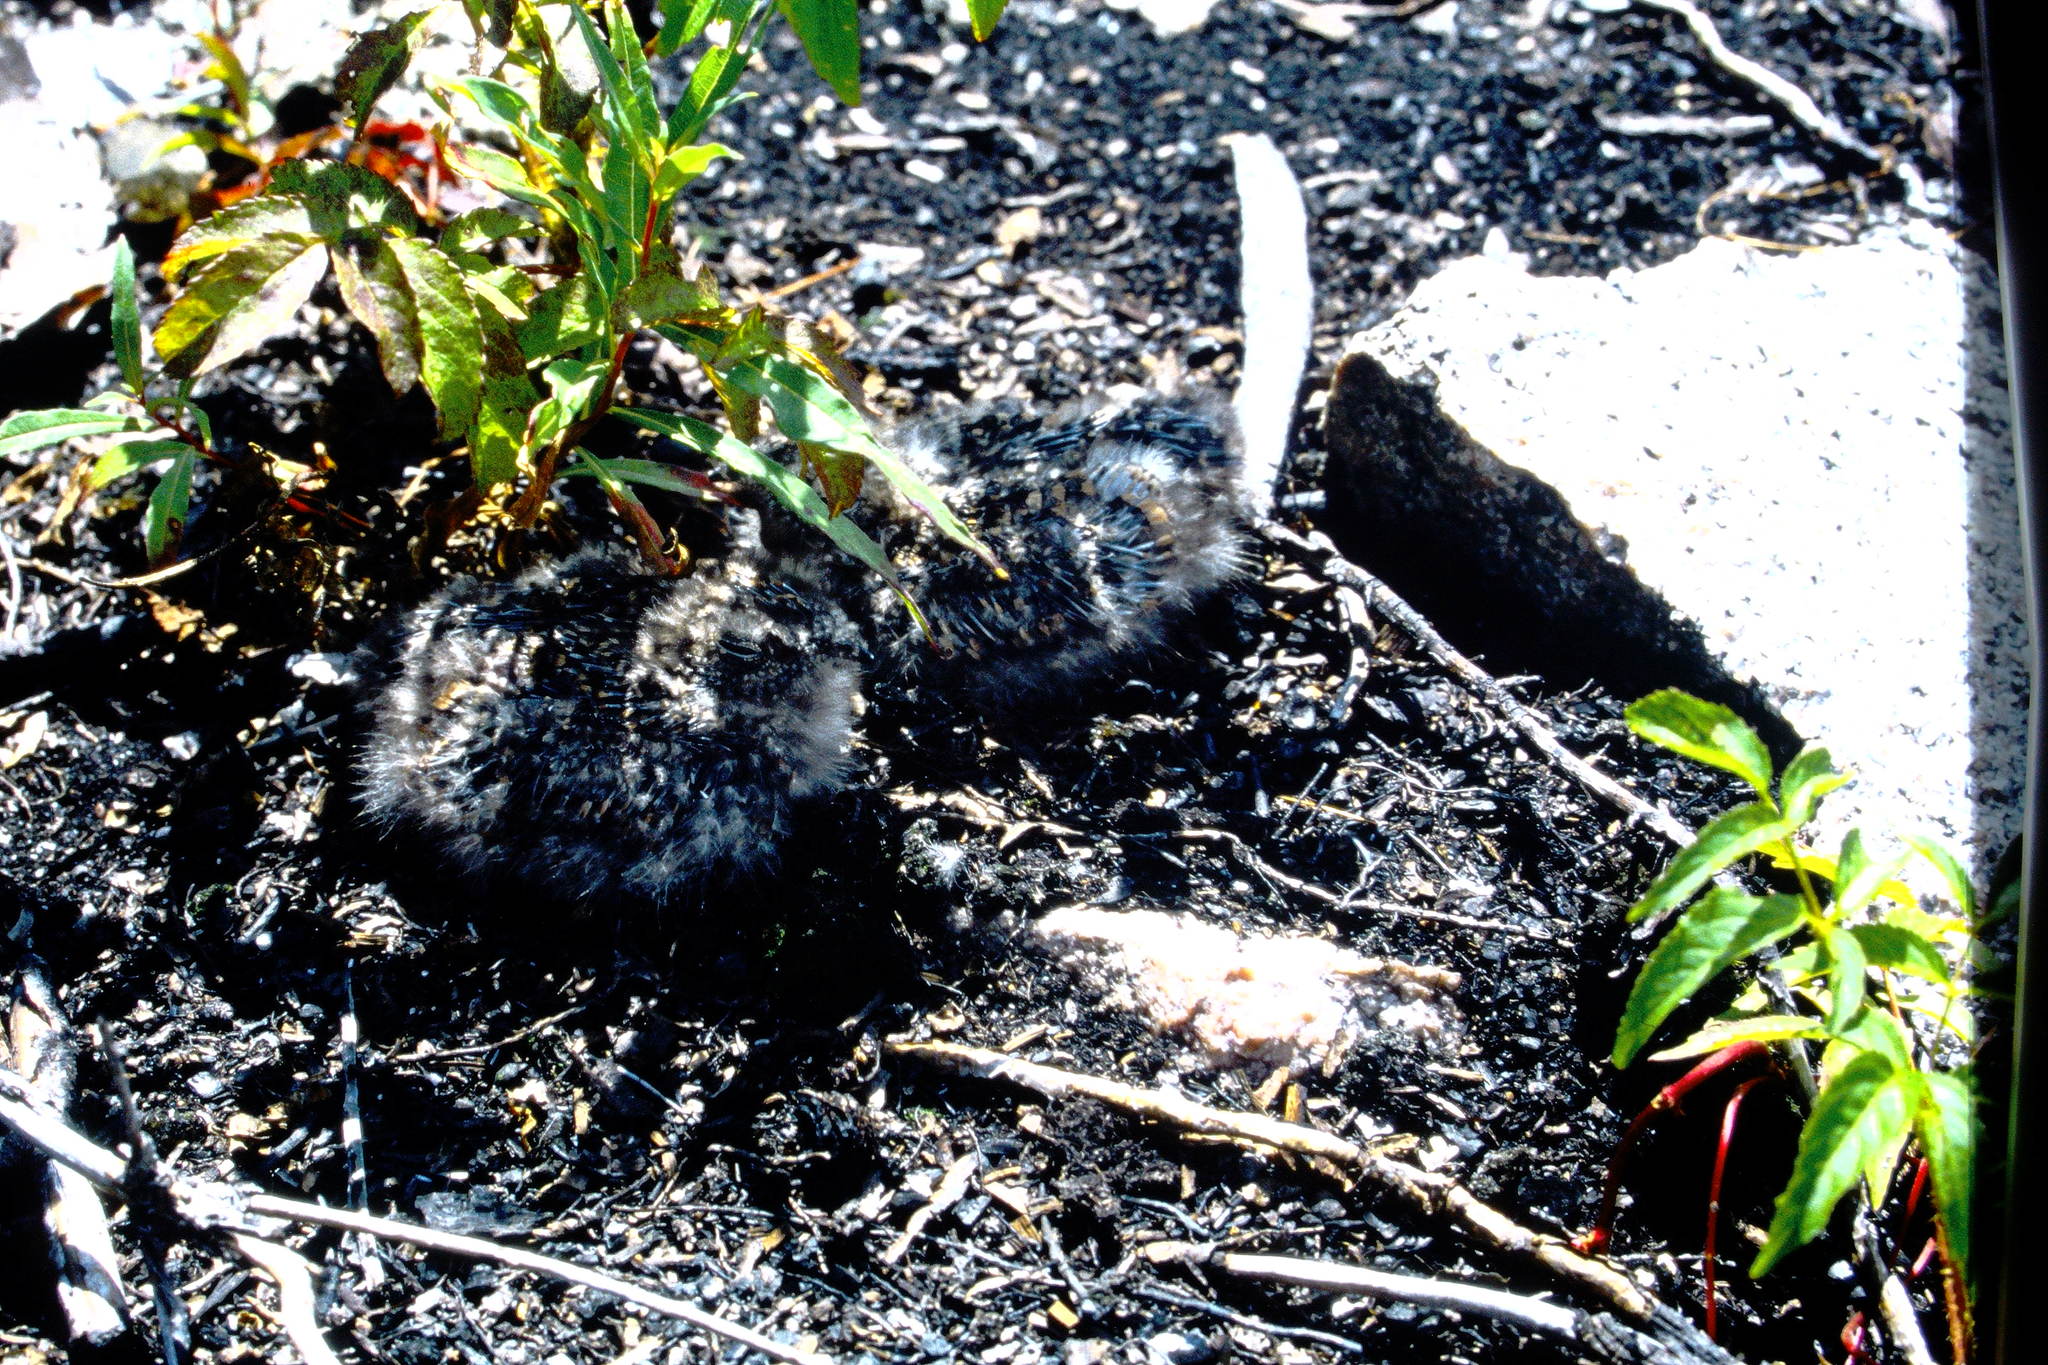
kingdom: Animalia
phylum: Chordata
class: Aves
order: Caprimulgiformes
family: Caprimulgidae
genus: Chordeiles
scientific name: Chordeiles minor
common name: Common nighthawk
